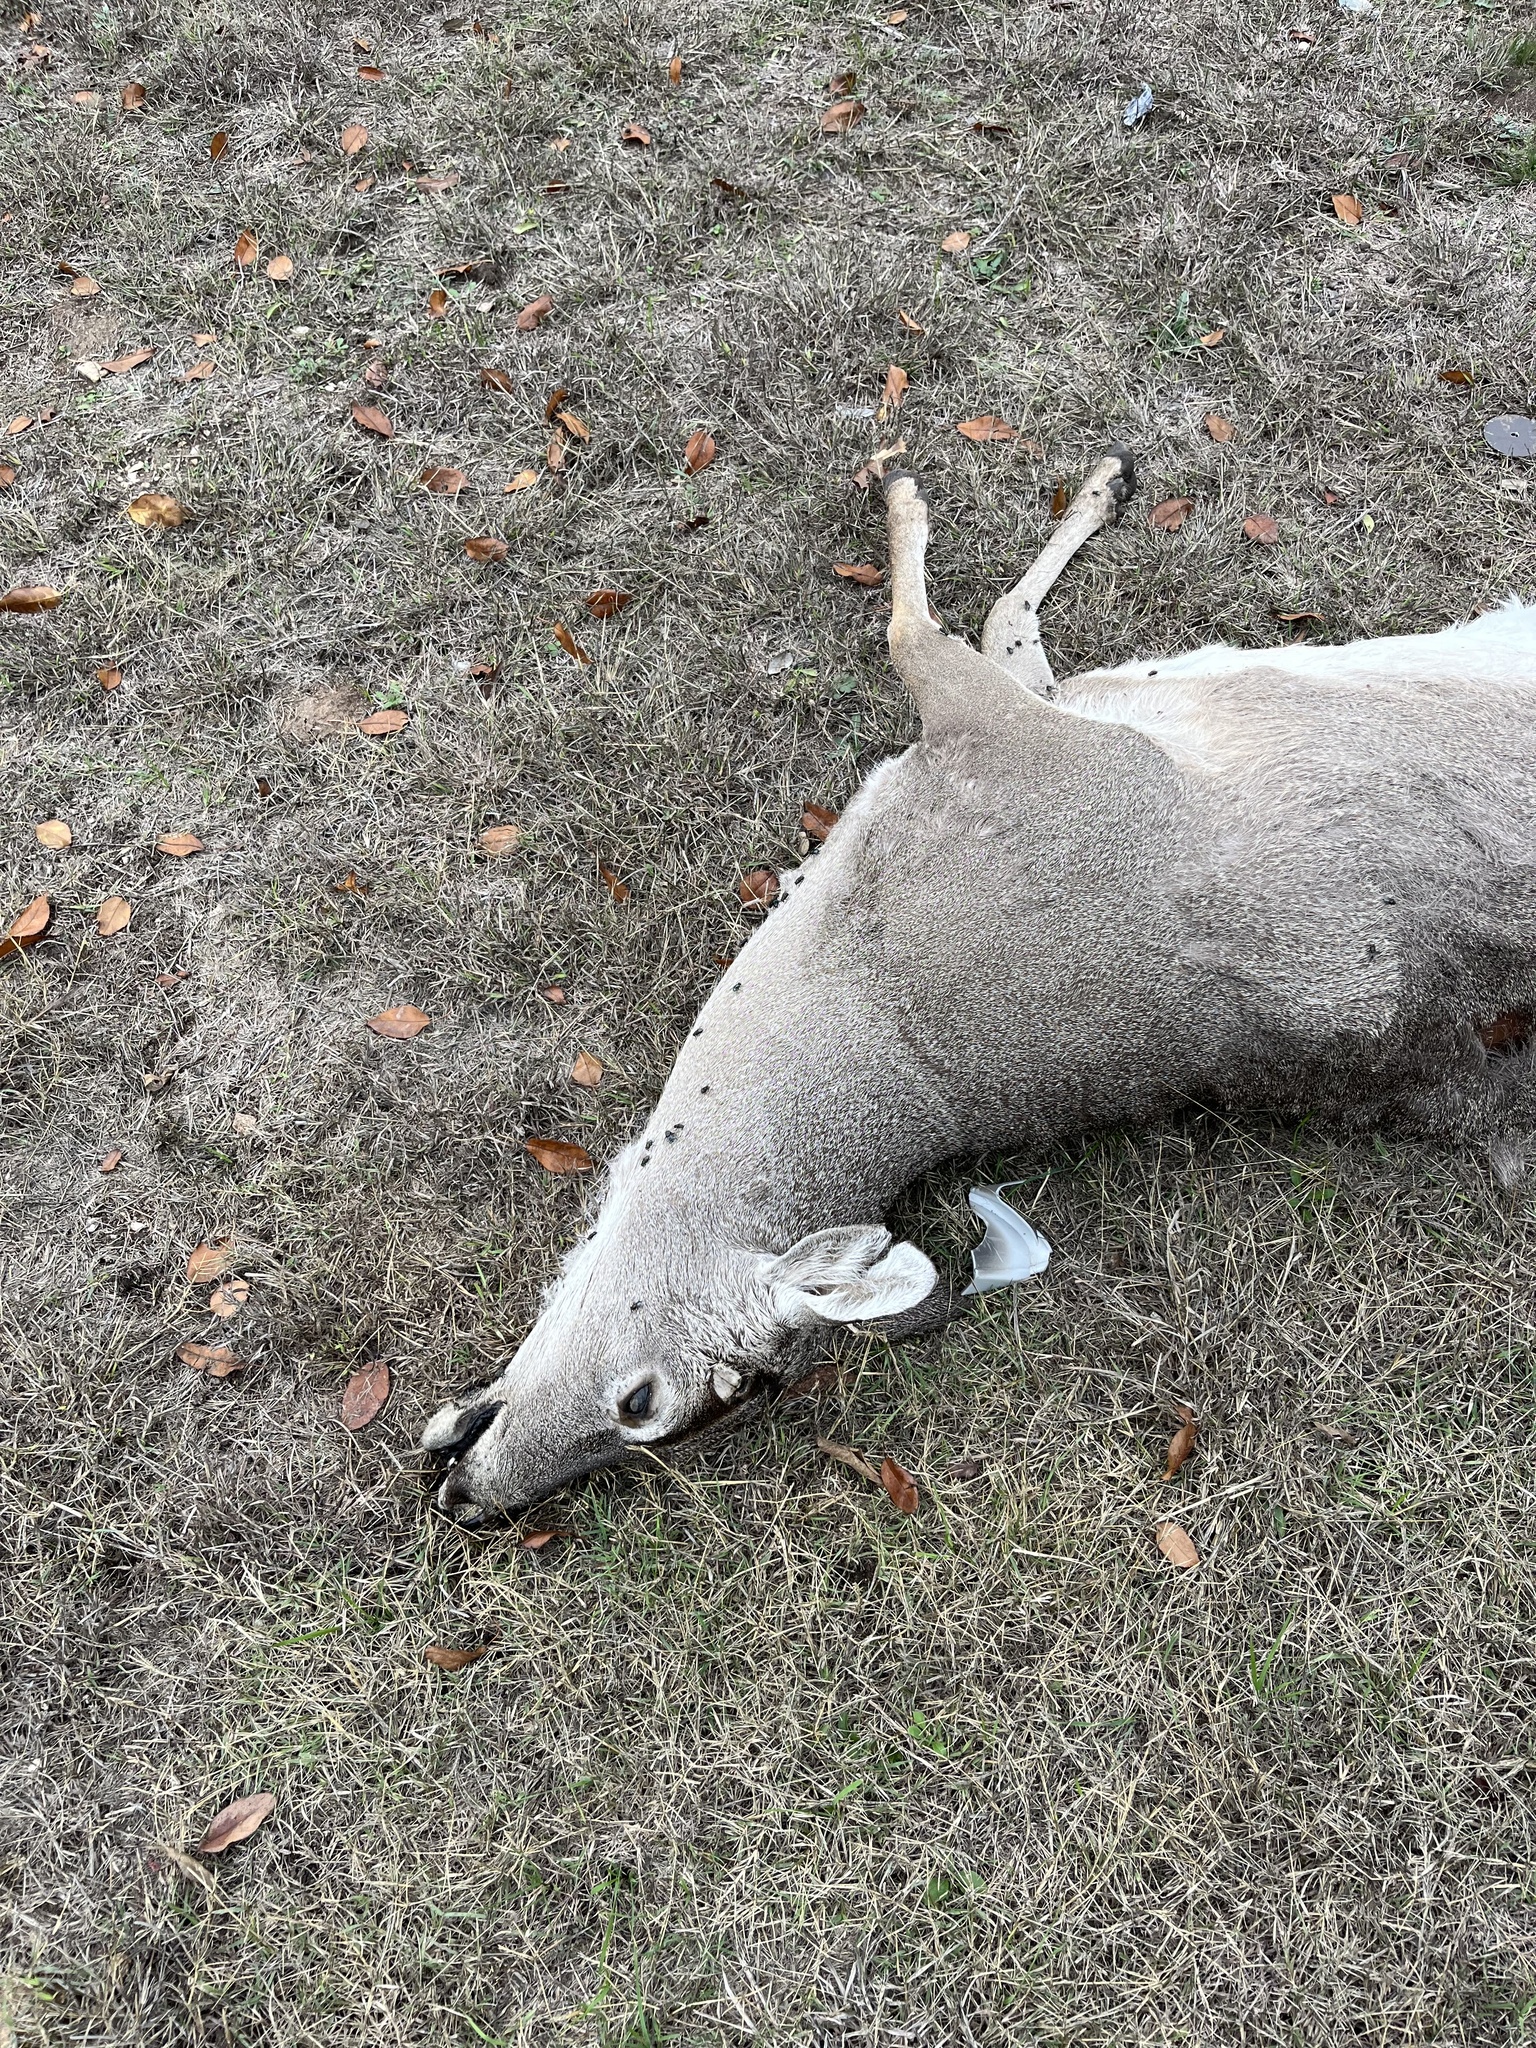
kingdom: Animalia
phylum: Chordata
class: Mammalia
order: Artiodactyla
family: Cervidae
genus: Odocoileus
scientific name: Odocoileus virginianus
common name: White-tailed deer
